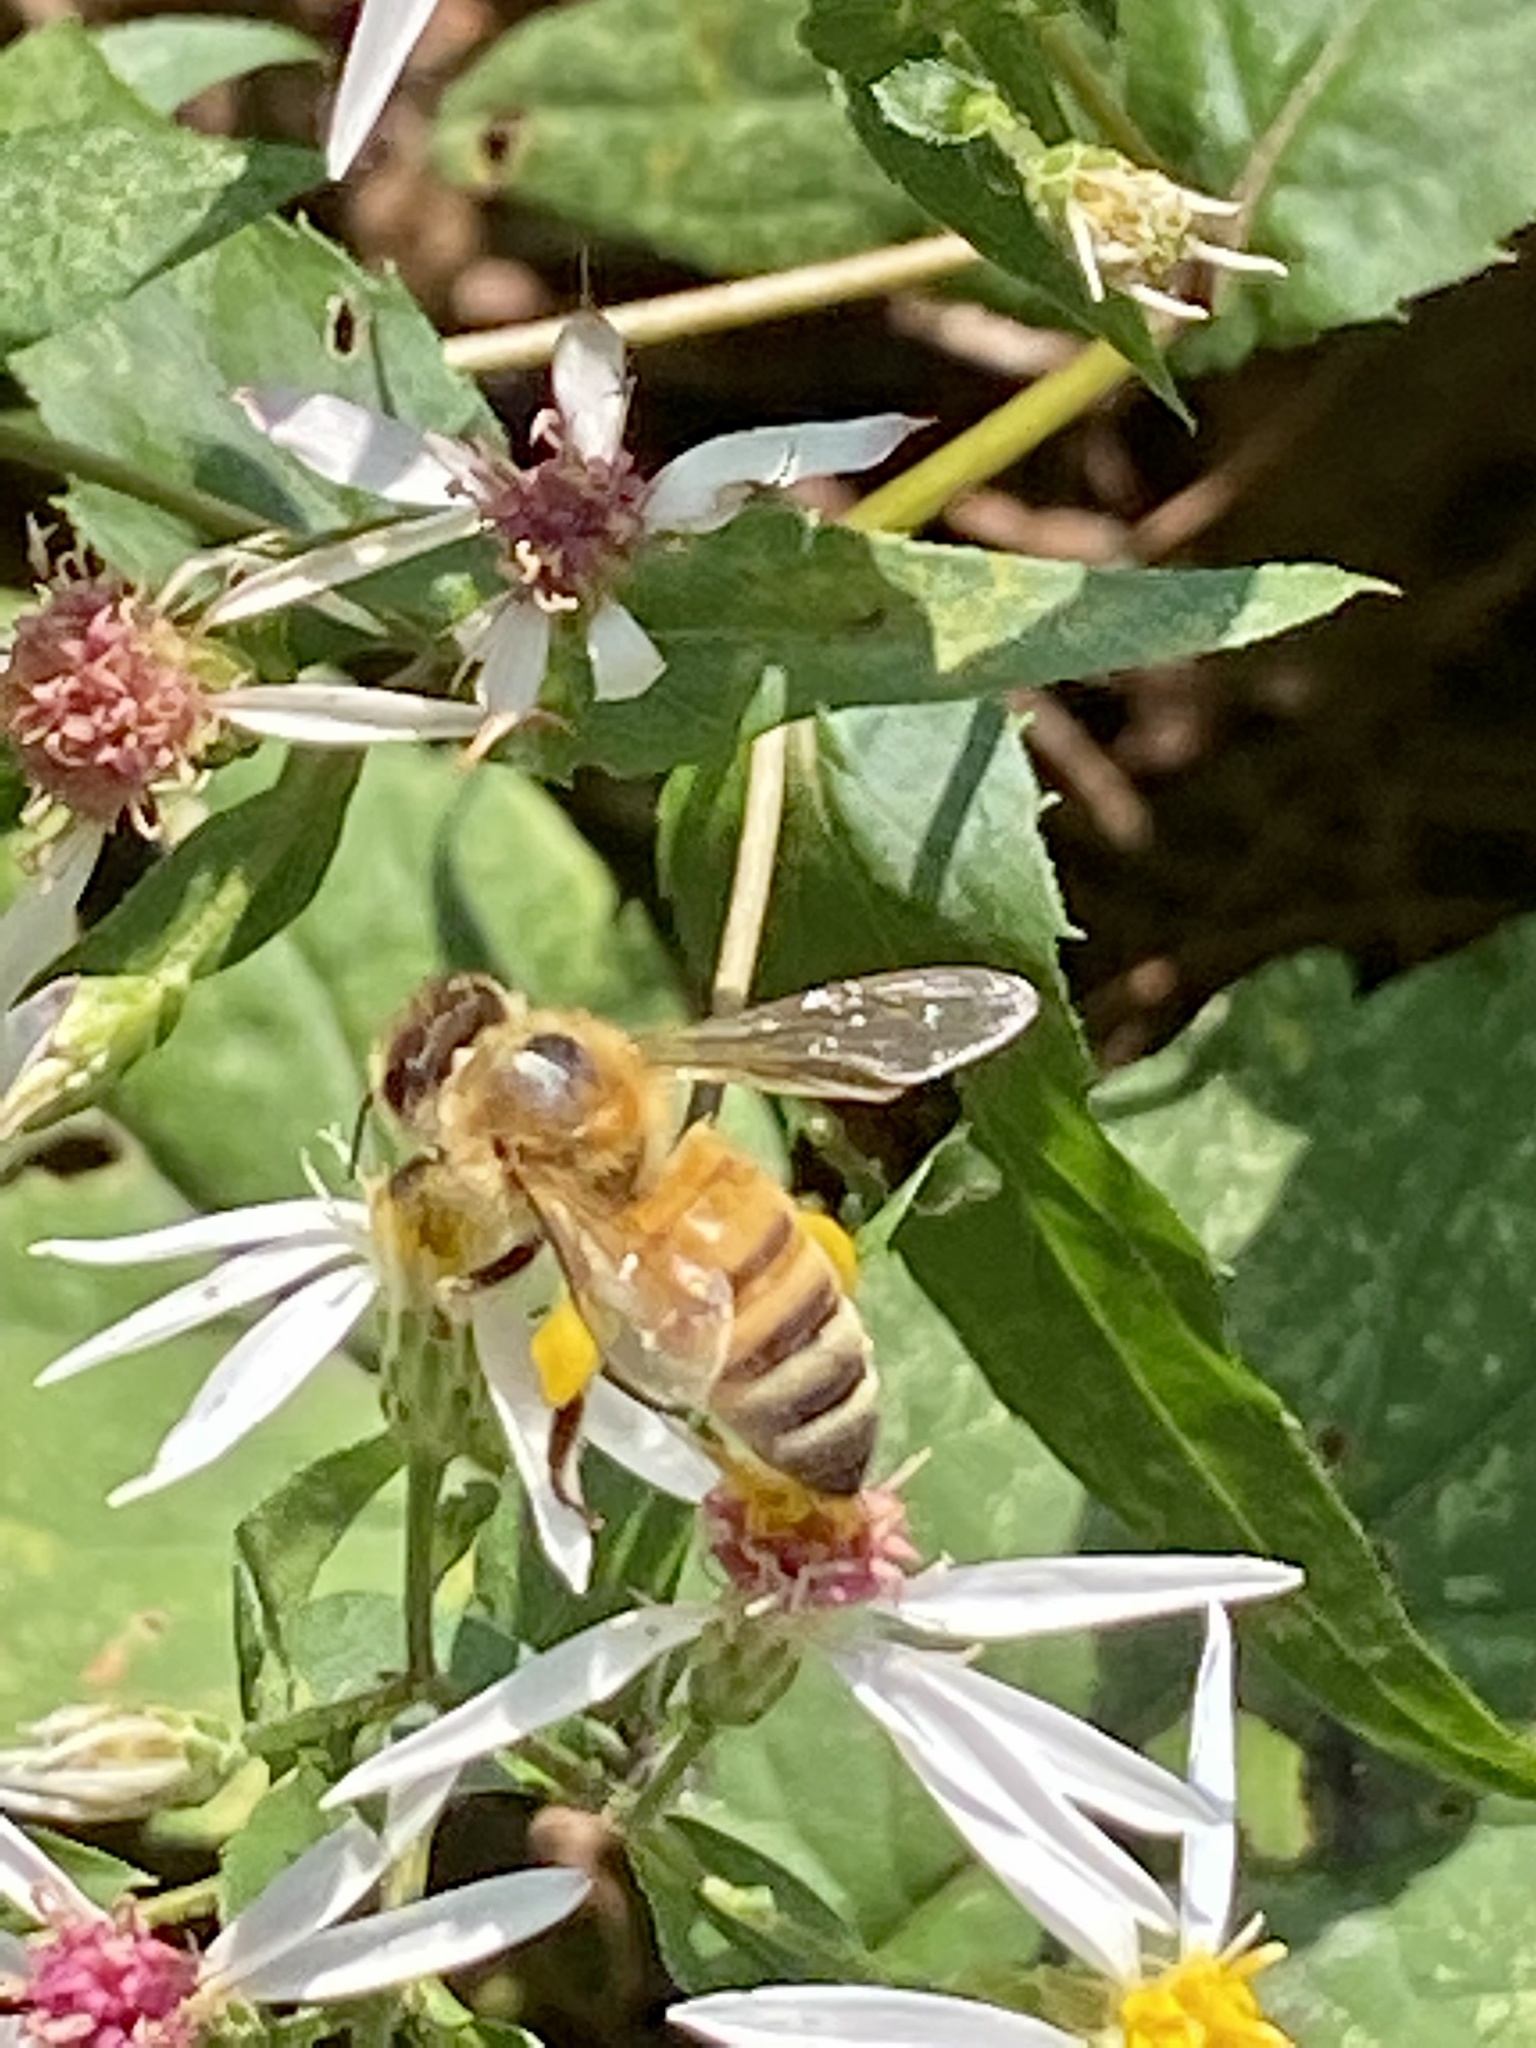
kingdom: Animalia
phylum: Arthropoda
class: Insecta
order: Hymenoptera
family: Apidae
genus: Apis
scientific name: Apis mellifera
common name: Honey bee
